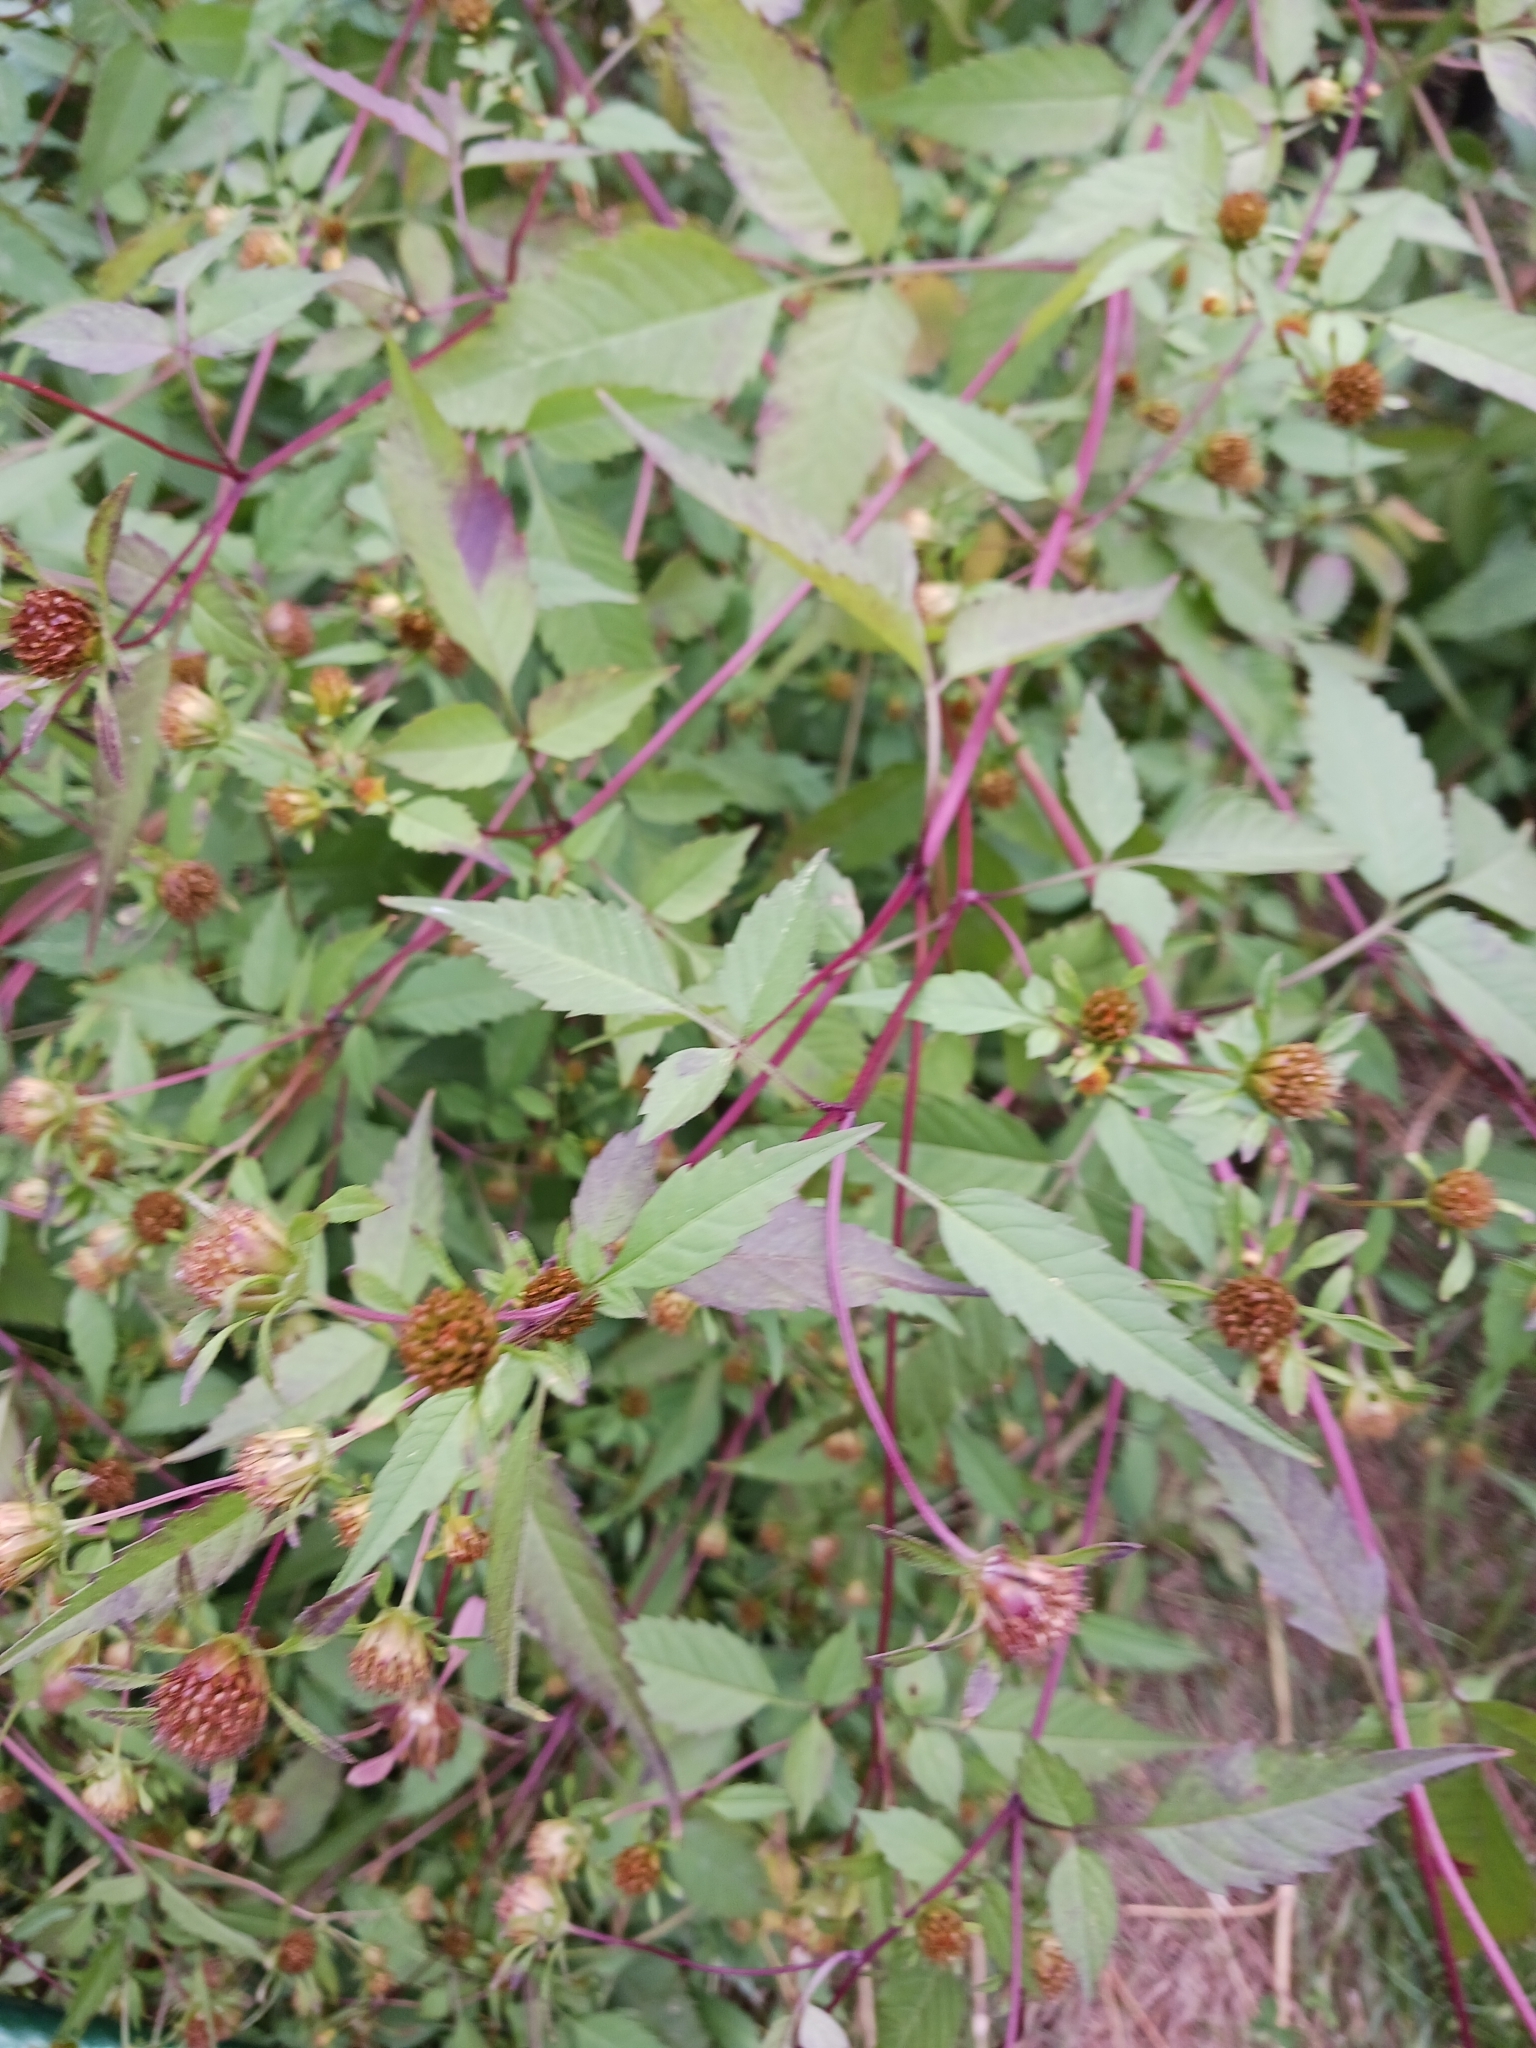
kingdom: Plantae
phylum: Tracheophyta
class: Magnoliopsida
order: Asterales
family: Asteraceae
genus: Bidens
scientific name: Bidens frondosa
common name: Beggarticks
